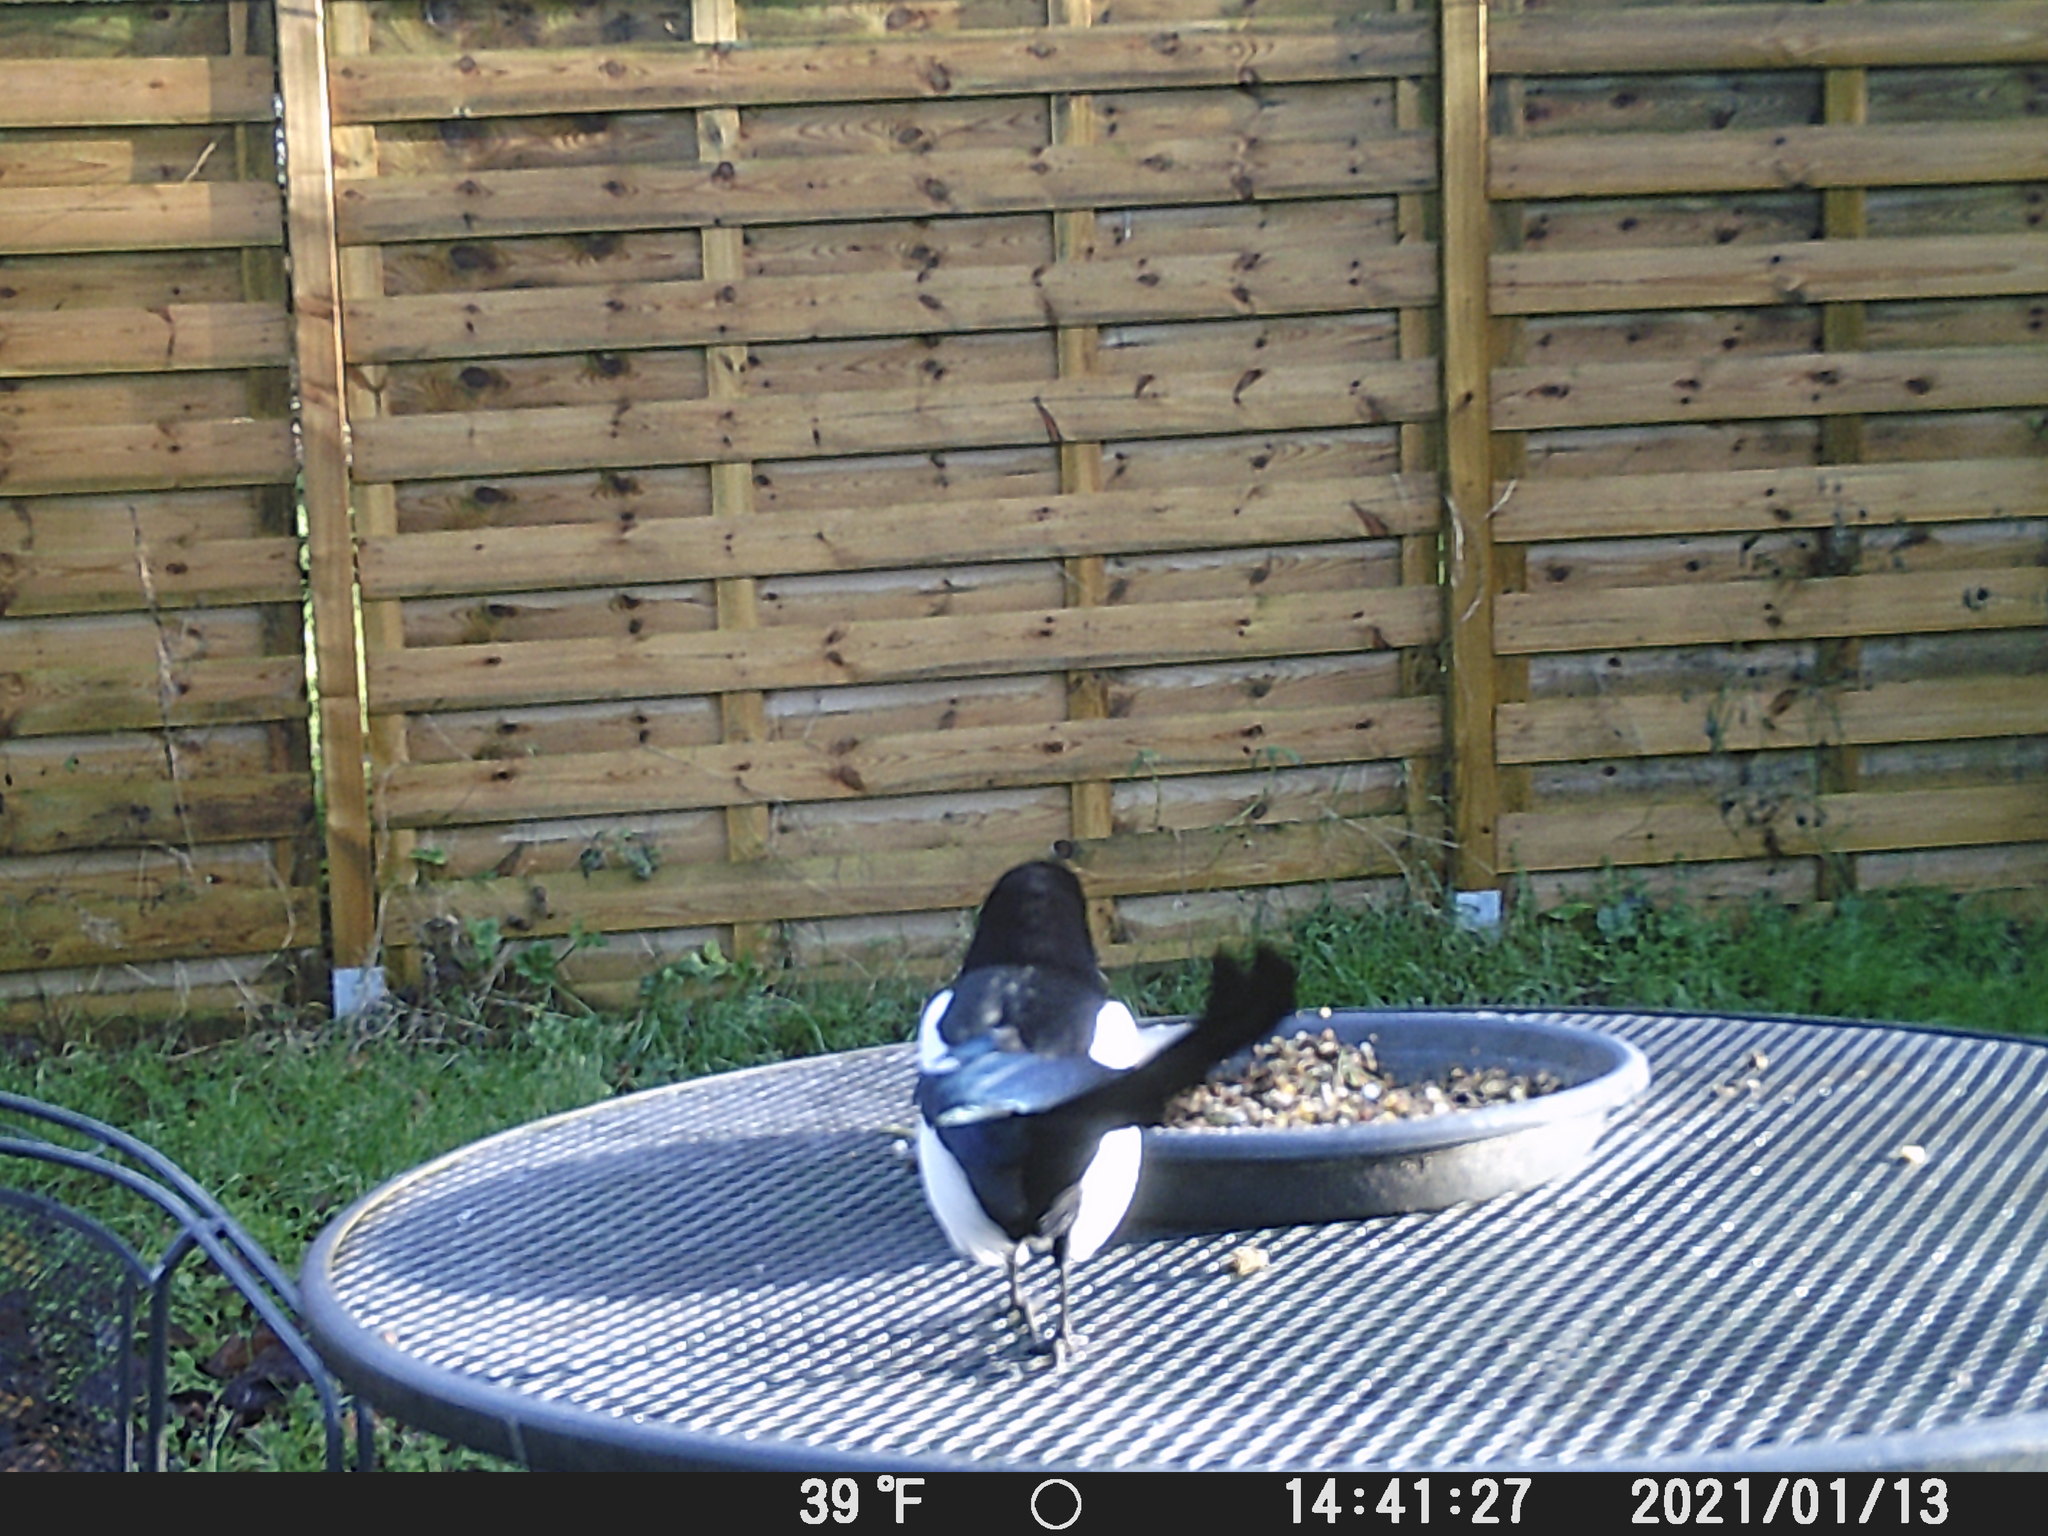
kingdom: Animalia
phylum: Chordata
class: Aves
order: Passeriformes
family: Corvidae
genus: Pica
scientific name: Pica pica
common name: Eurasian magpie
